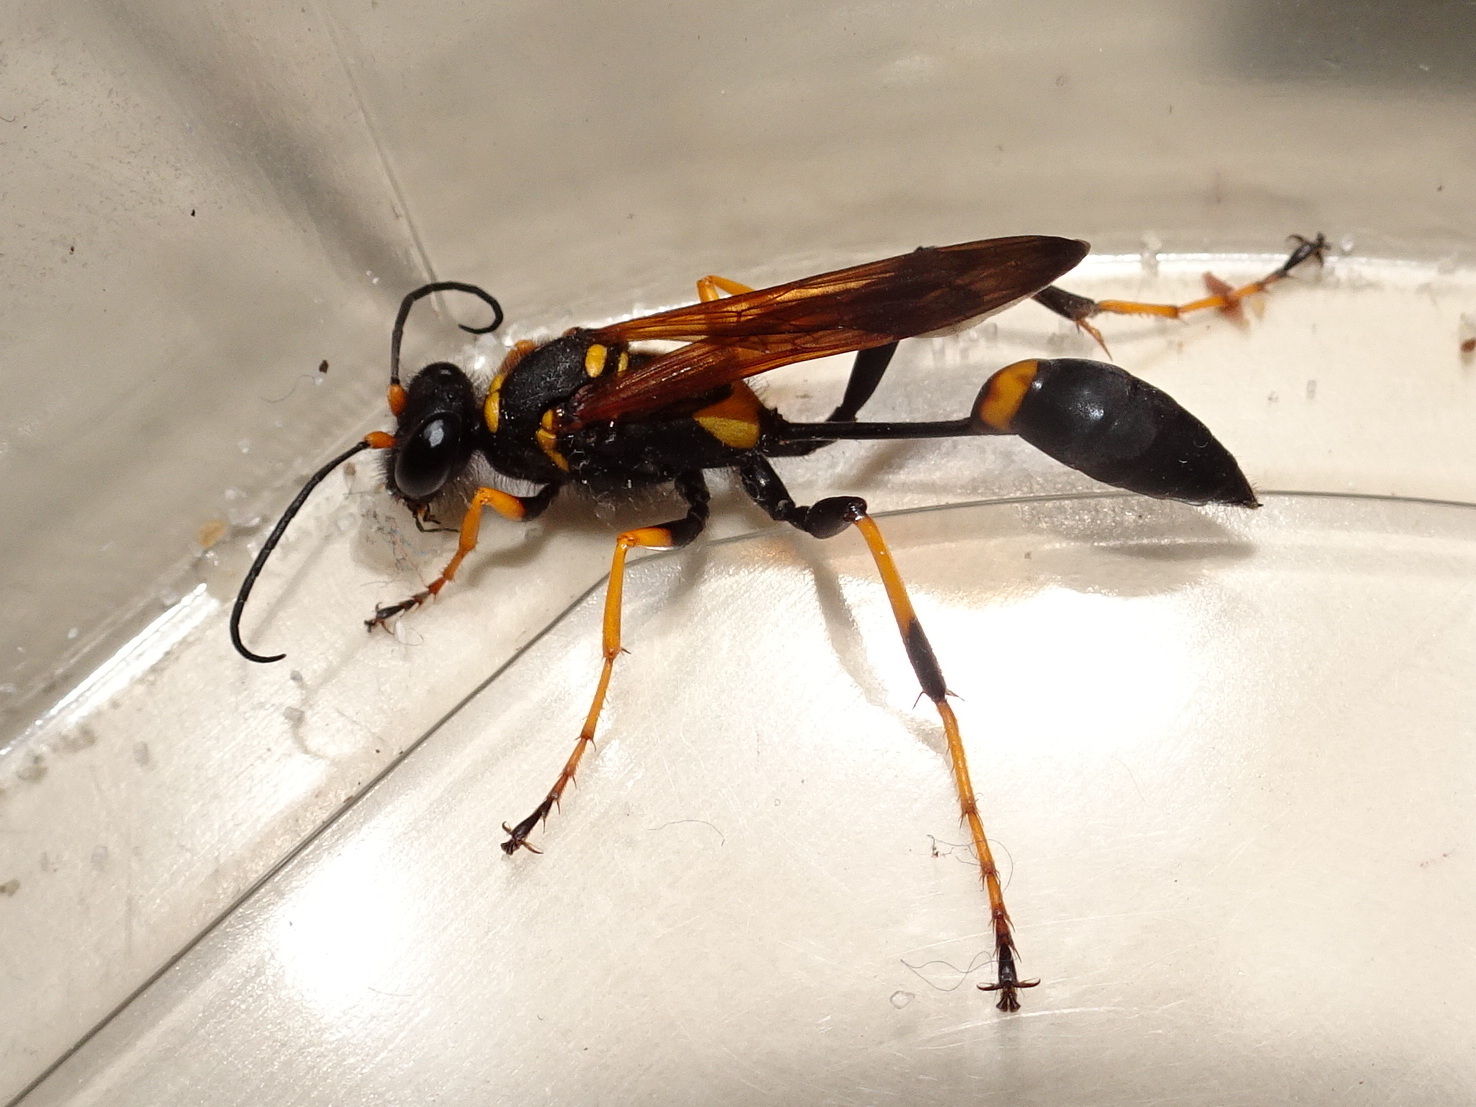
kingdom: Animalia
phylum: Arthropoda
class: Insecta
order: Hymenoptera
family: Sphecidae
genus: Sceliphron
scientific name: Sceliphron caementarium
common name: Mud dauber
